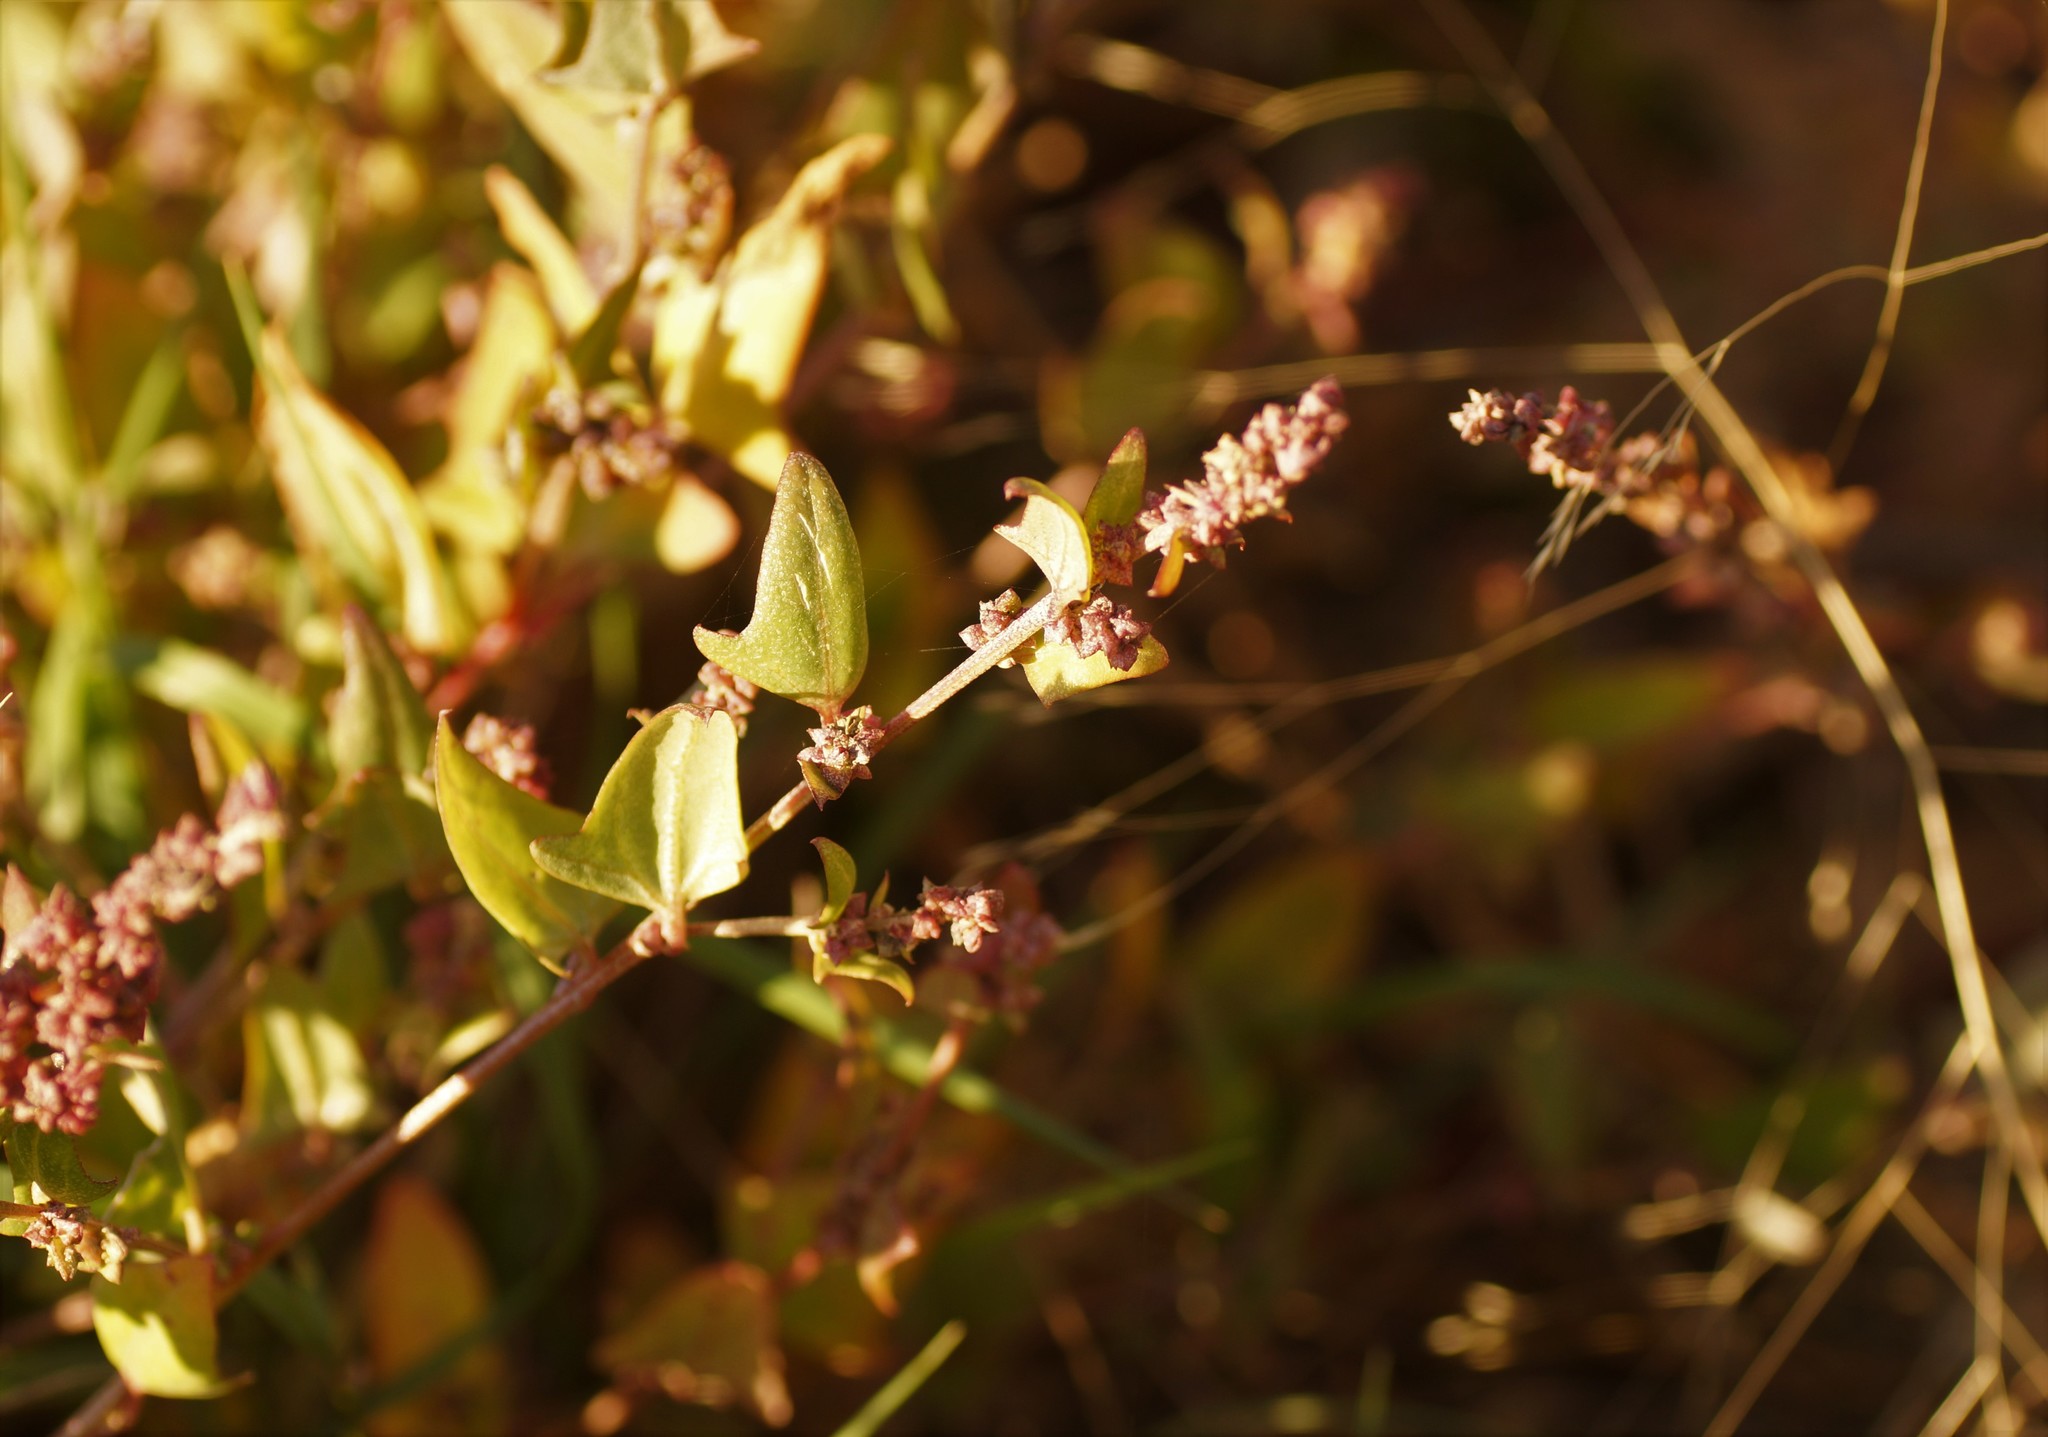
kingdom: Plantae
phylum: Tracheophyta
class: Magnoliopsida
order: Caryophyllales
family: Amaranthaceae
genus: Atriplex
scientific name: Atriplex prostrata
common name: Spear-leaved orache
